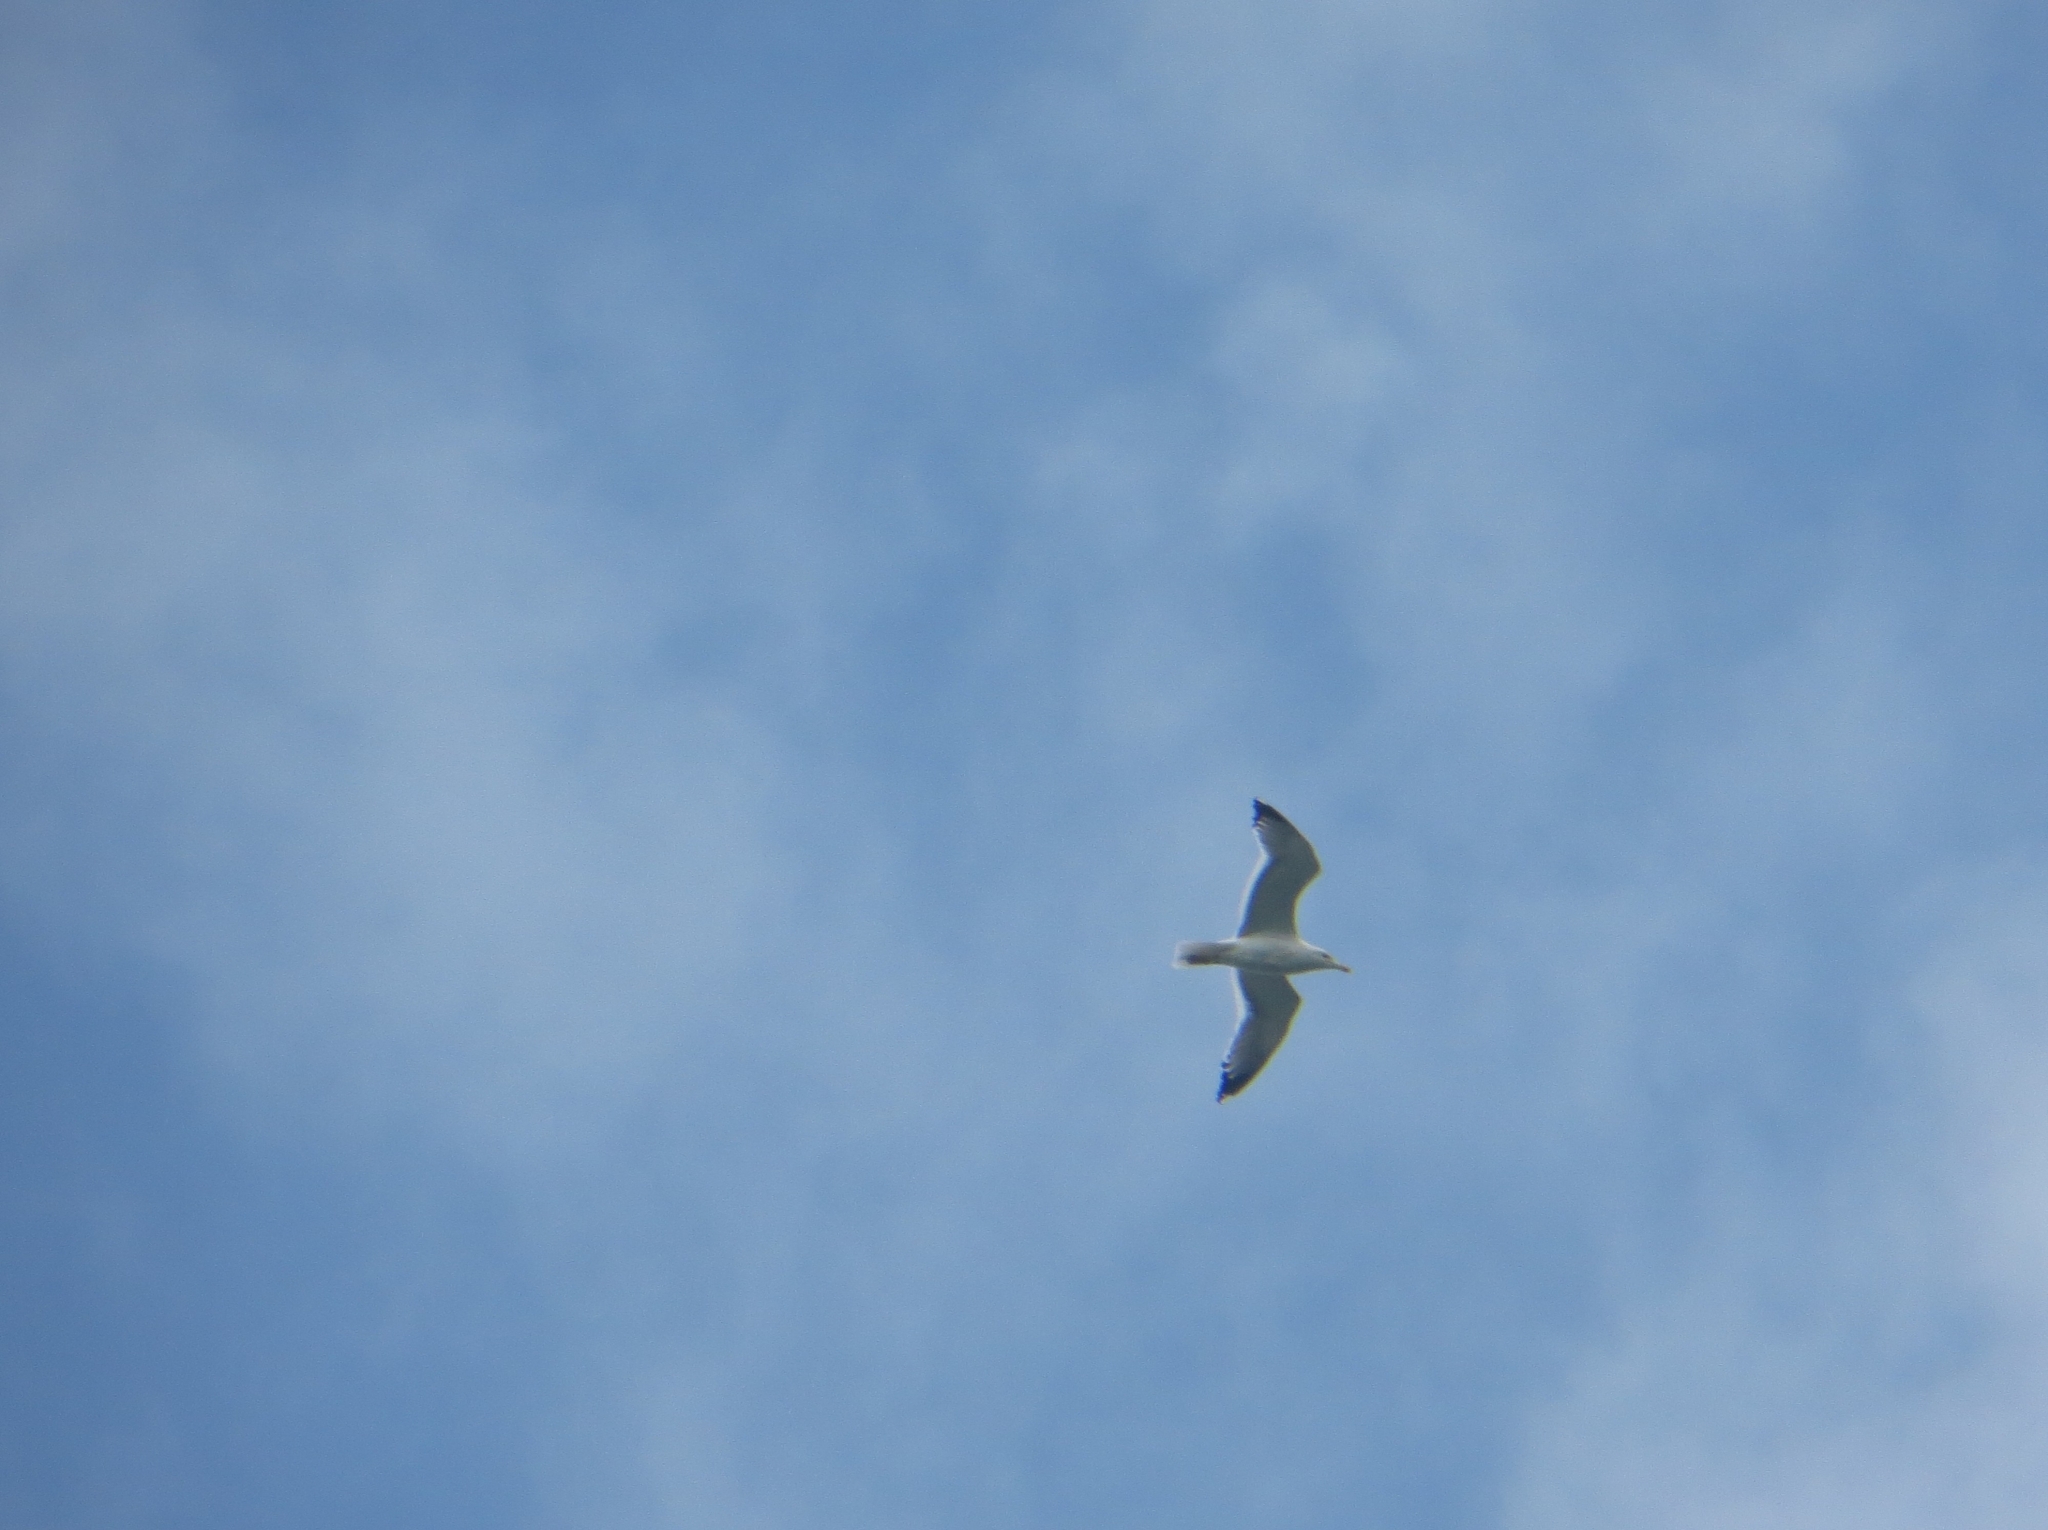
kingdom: Animalia
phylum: Chordata
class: Aves
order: Charadriiformes
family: Laridae
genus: Larus
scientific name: Larus fuscus
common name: Lesser black-backed gull
